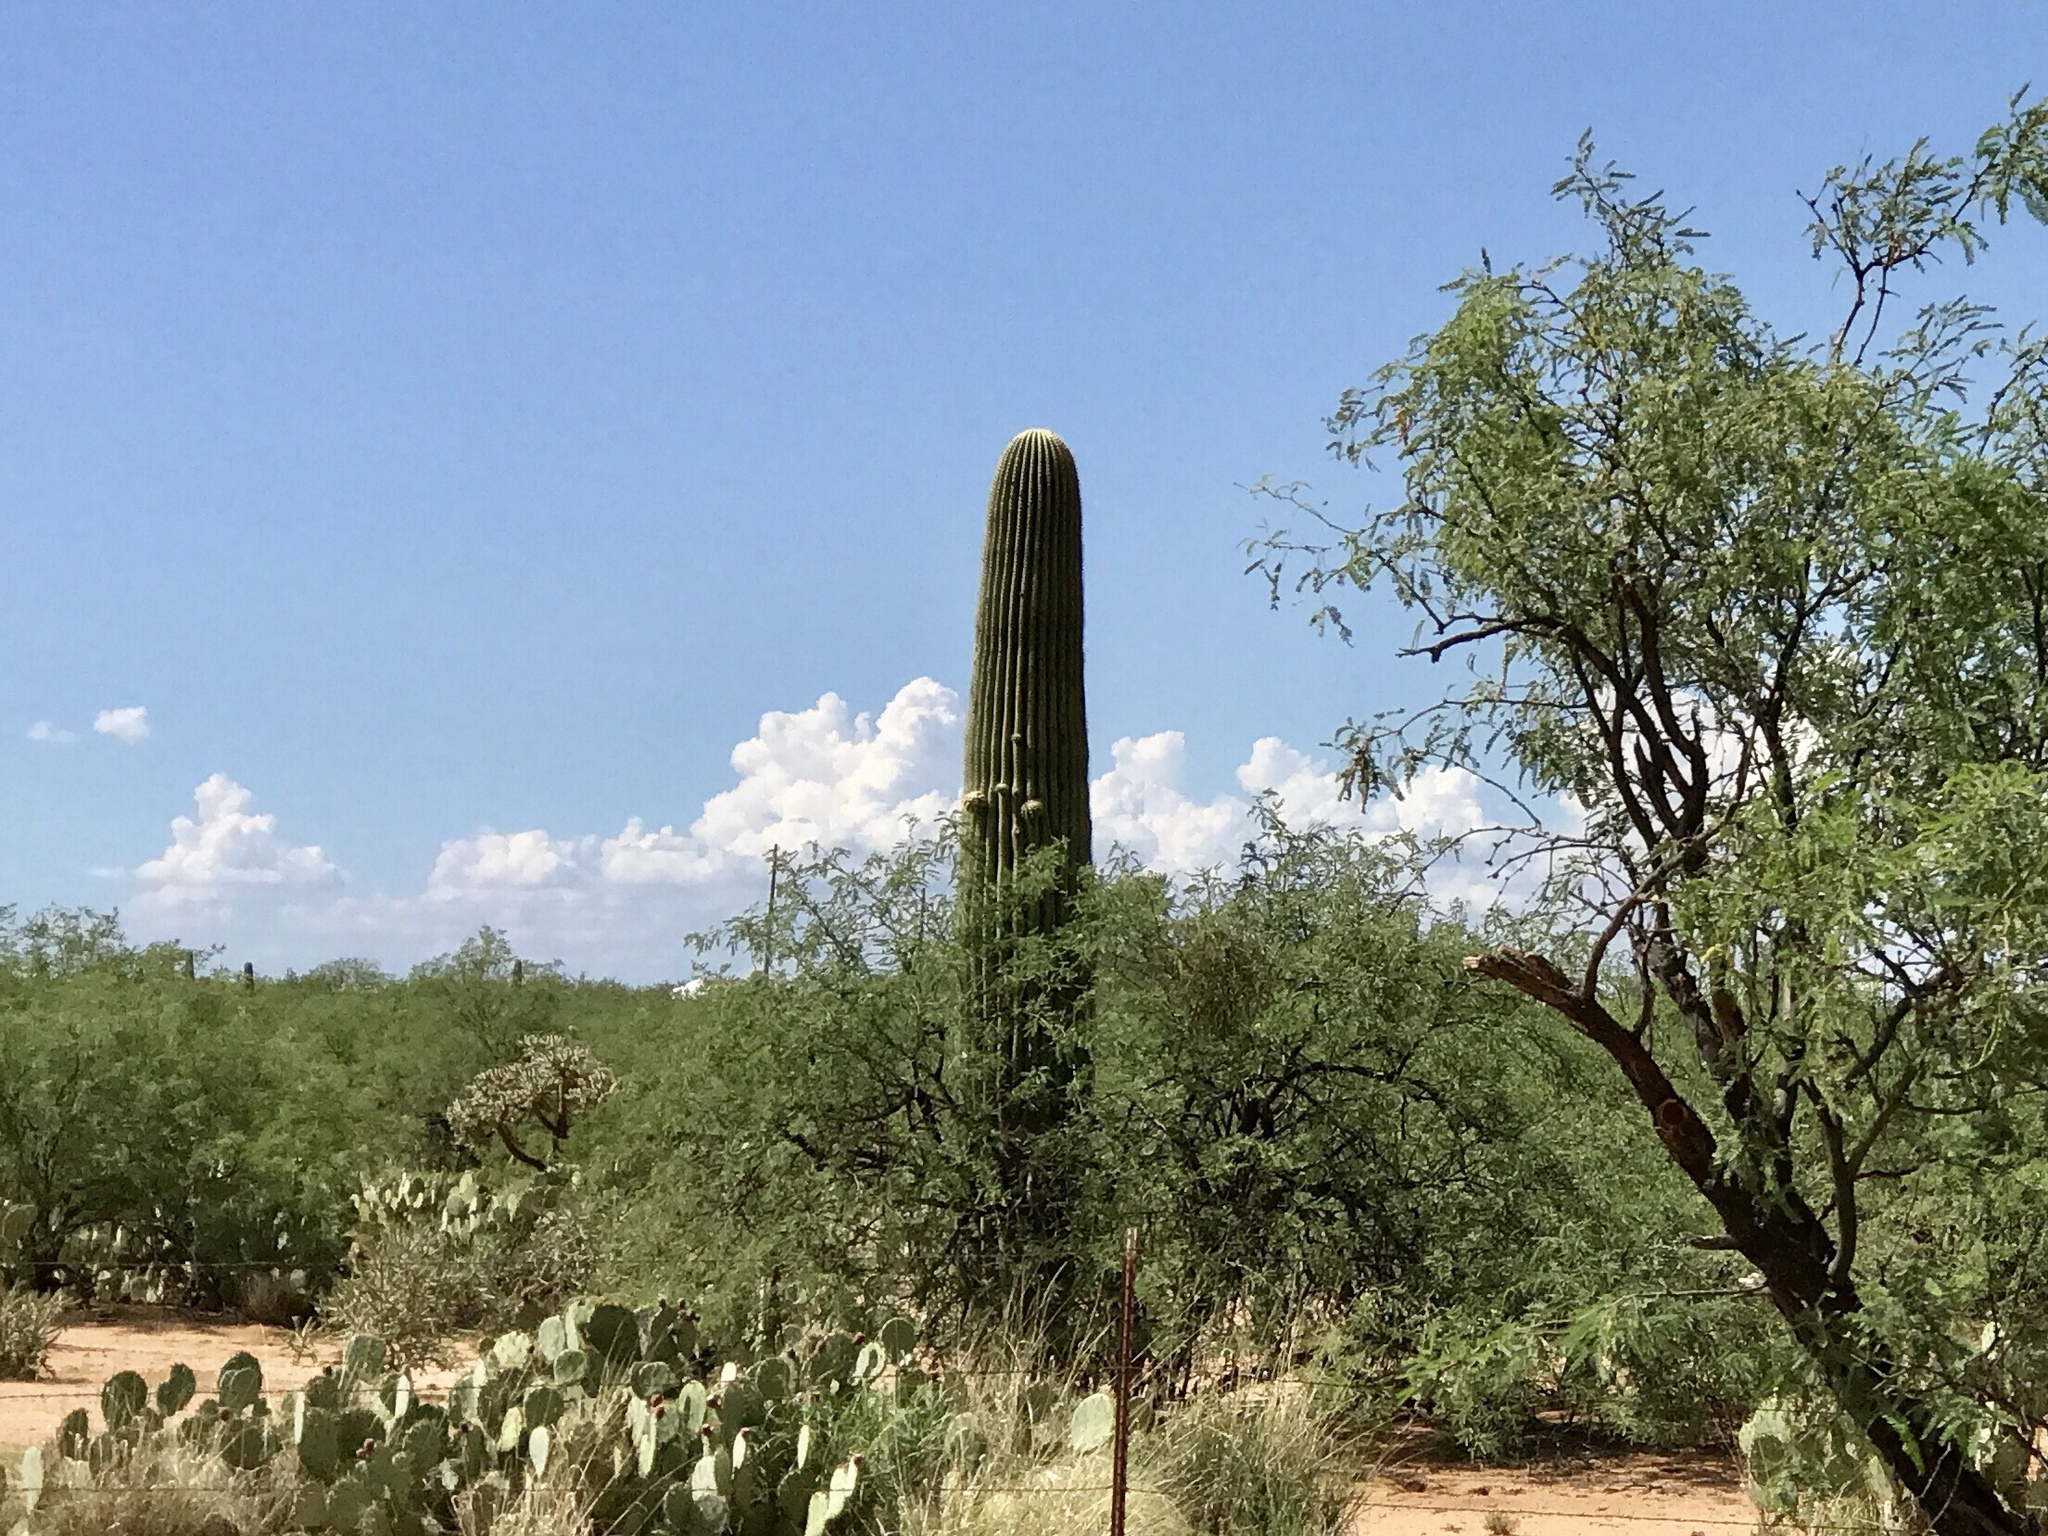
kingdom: Plantae
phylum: Tracheophyta
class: Magnoliopsida
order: Caryophyllales
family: Cactaceae
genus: Carnegiea
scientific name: Carnegiea gigantea
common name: Saguaro
